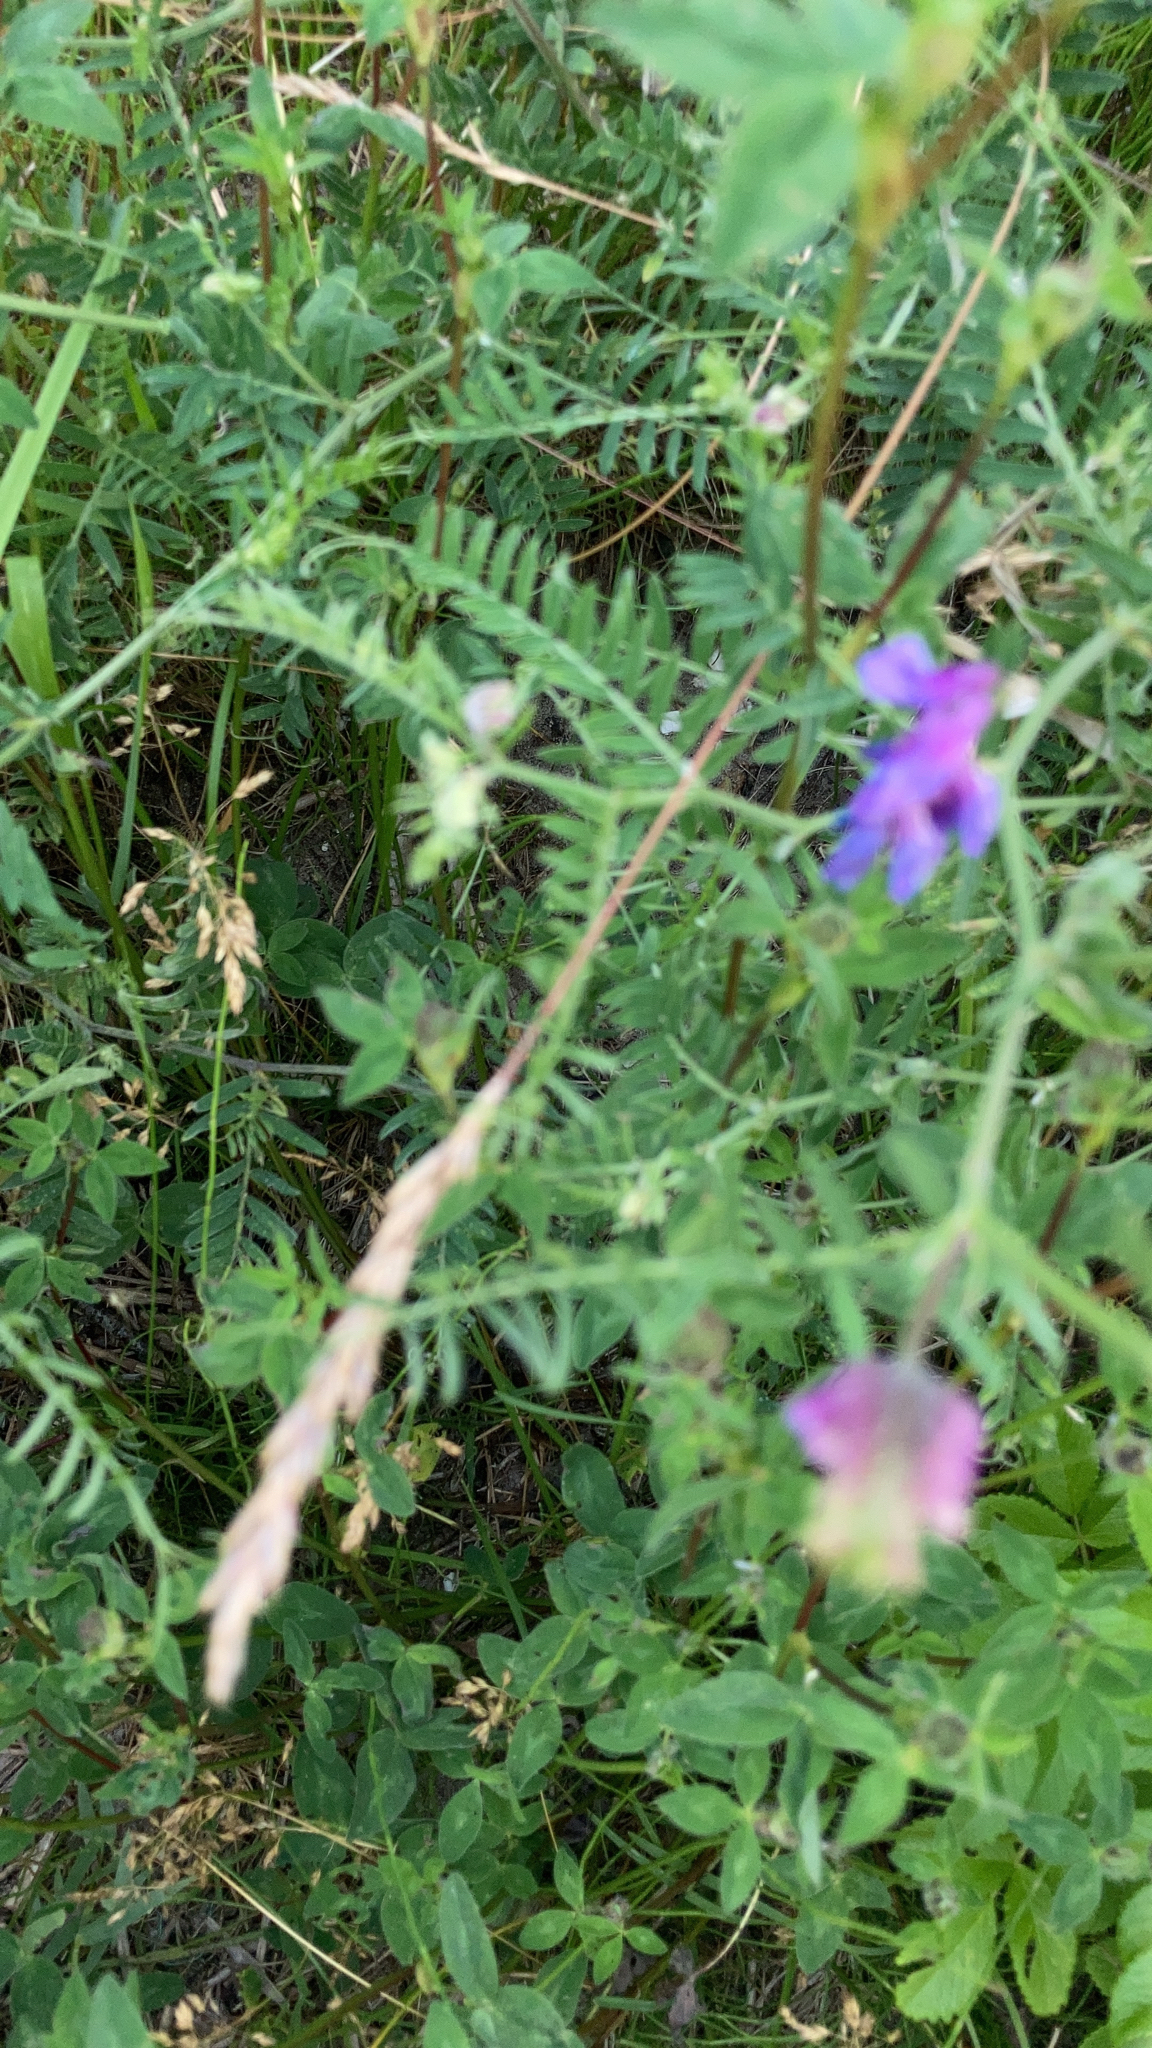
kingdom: Plantae
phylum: Tracheophyta
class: Magnoliopsida
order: Fabales
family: Fabaceae
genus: Vicia
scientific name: Vicia cracca
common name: Bird vetch
